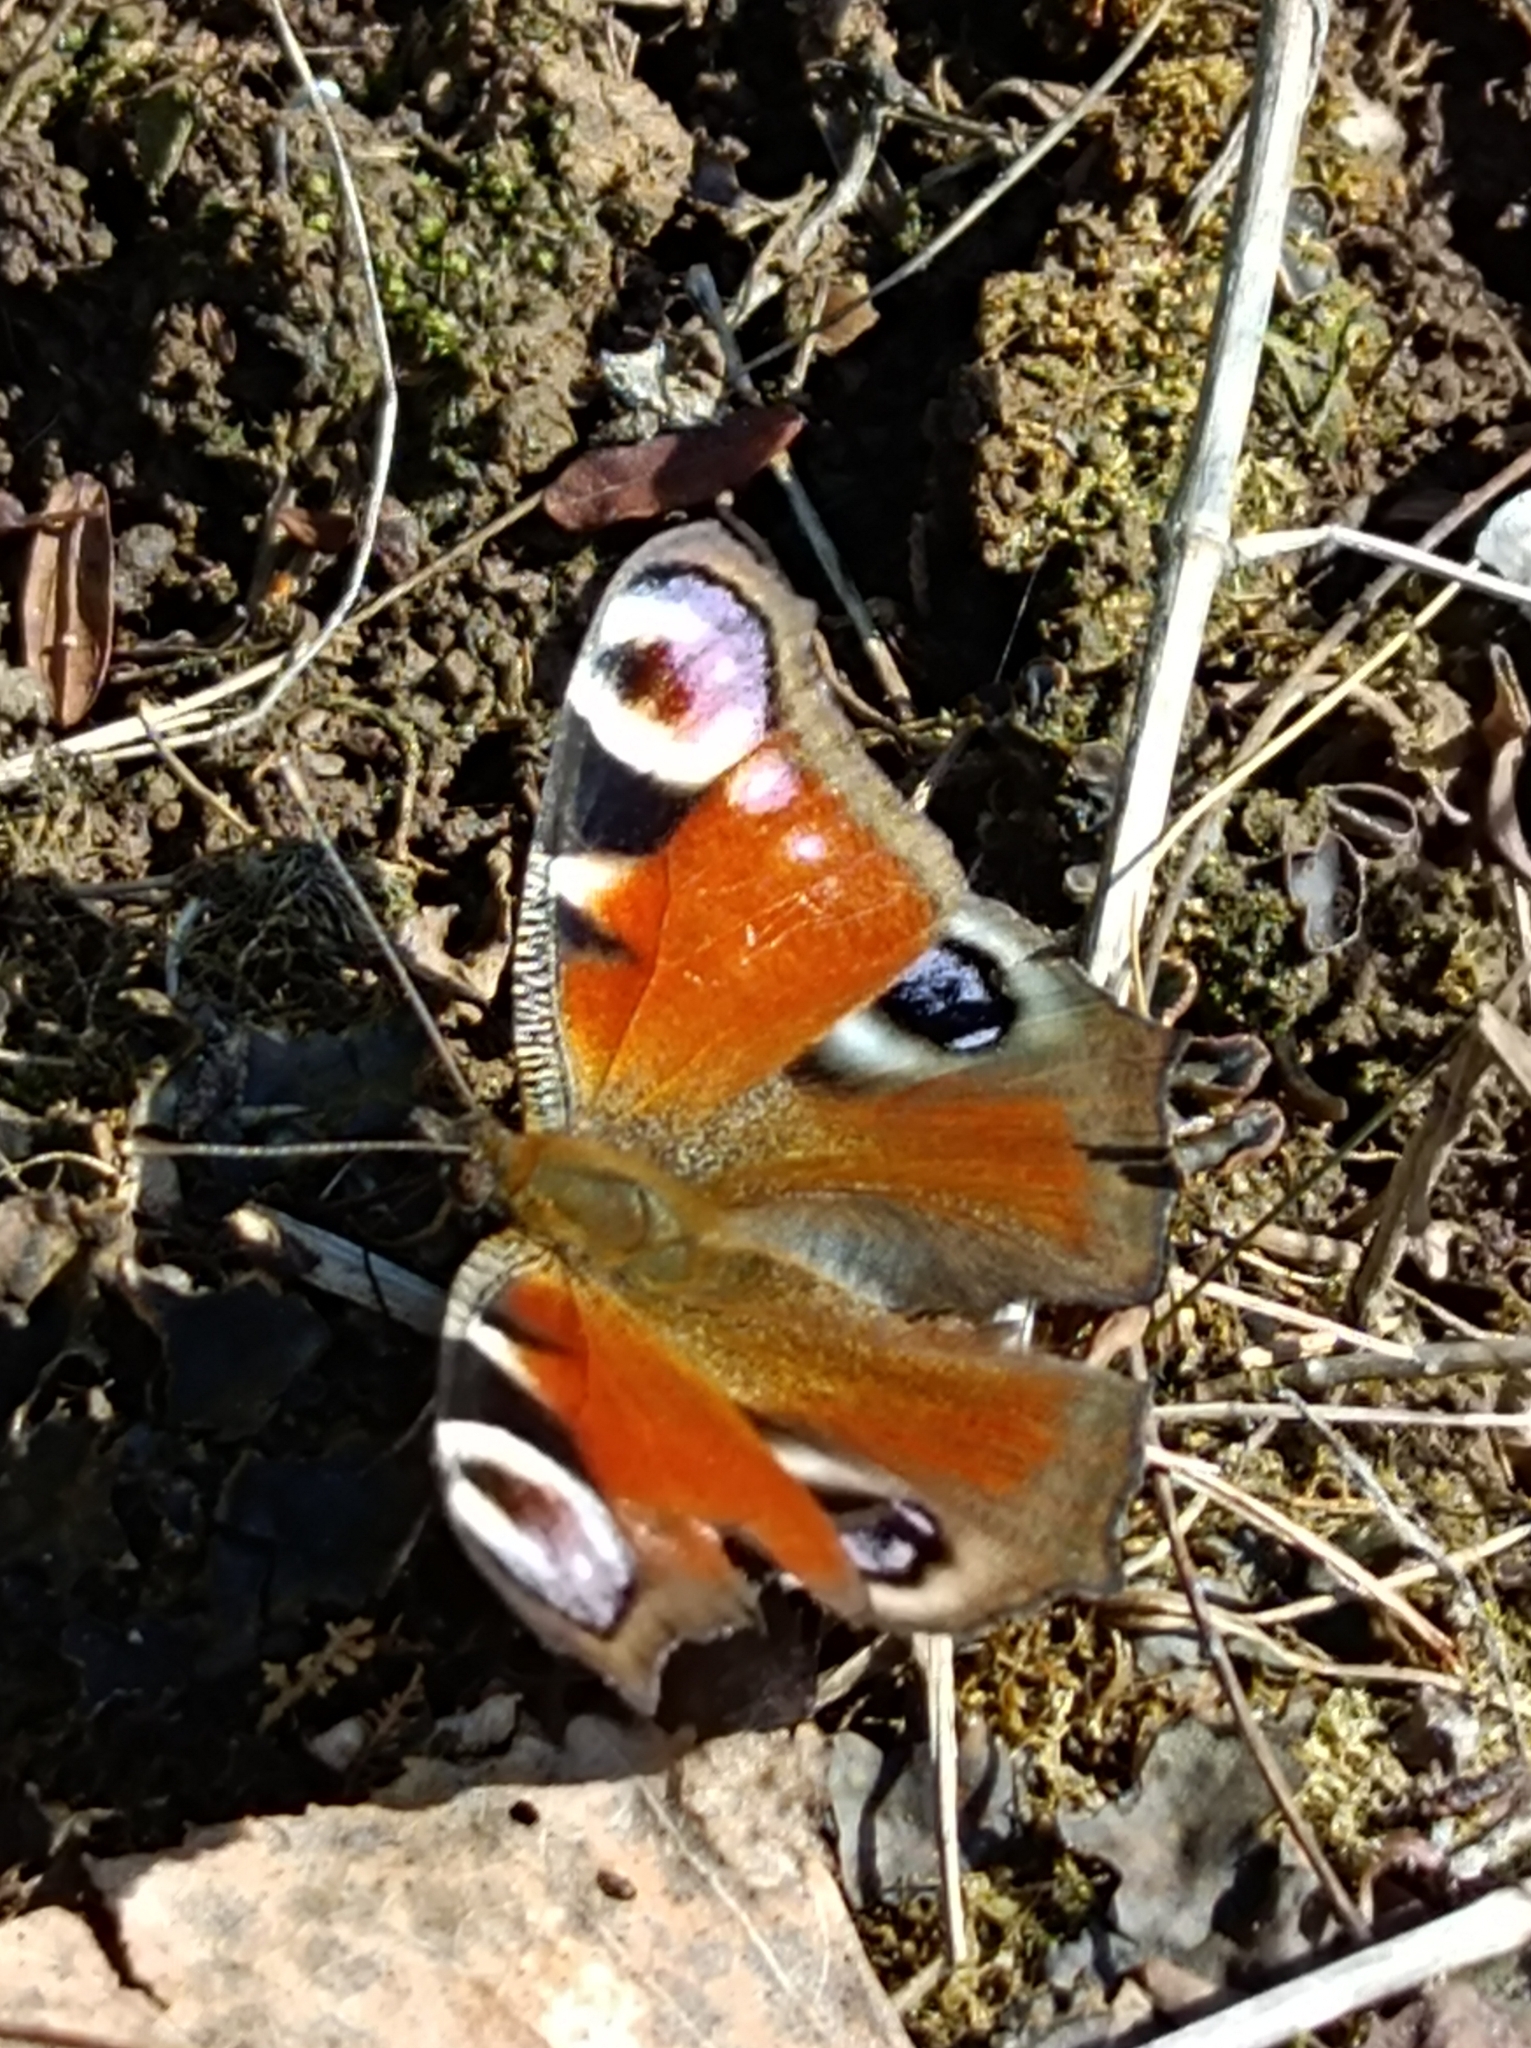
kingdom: Animalia
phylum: Arthropoda
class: Insecta
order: Lepidoptera
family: Nymphalidae
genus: Aglais
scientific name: Aglais io
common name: Peacock
